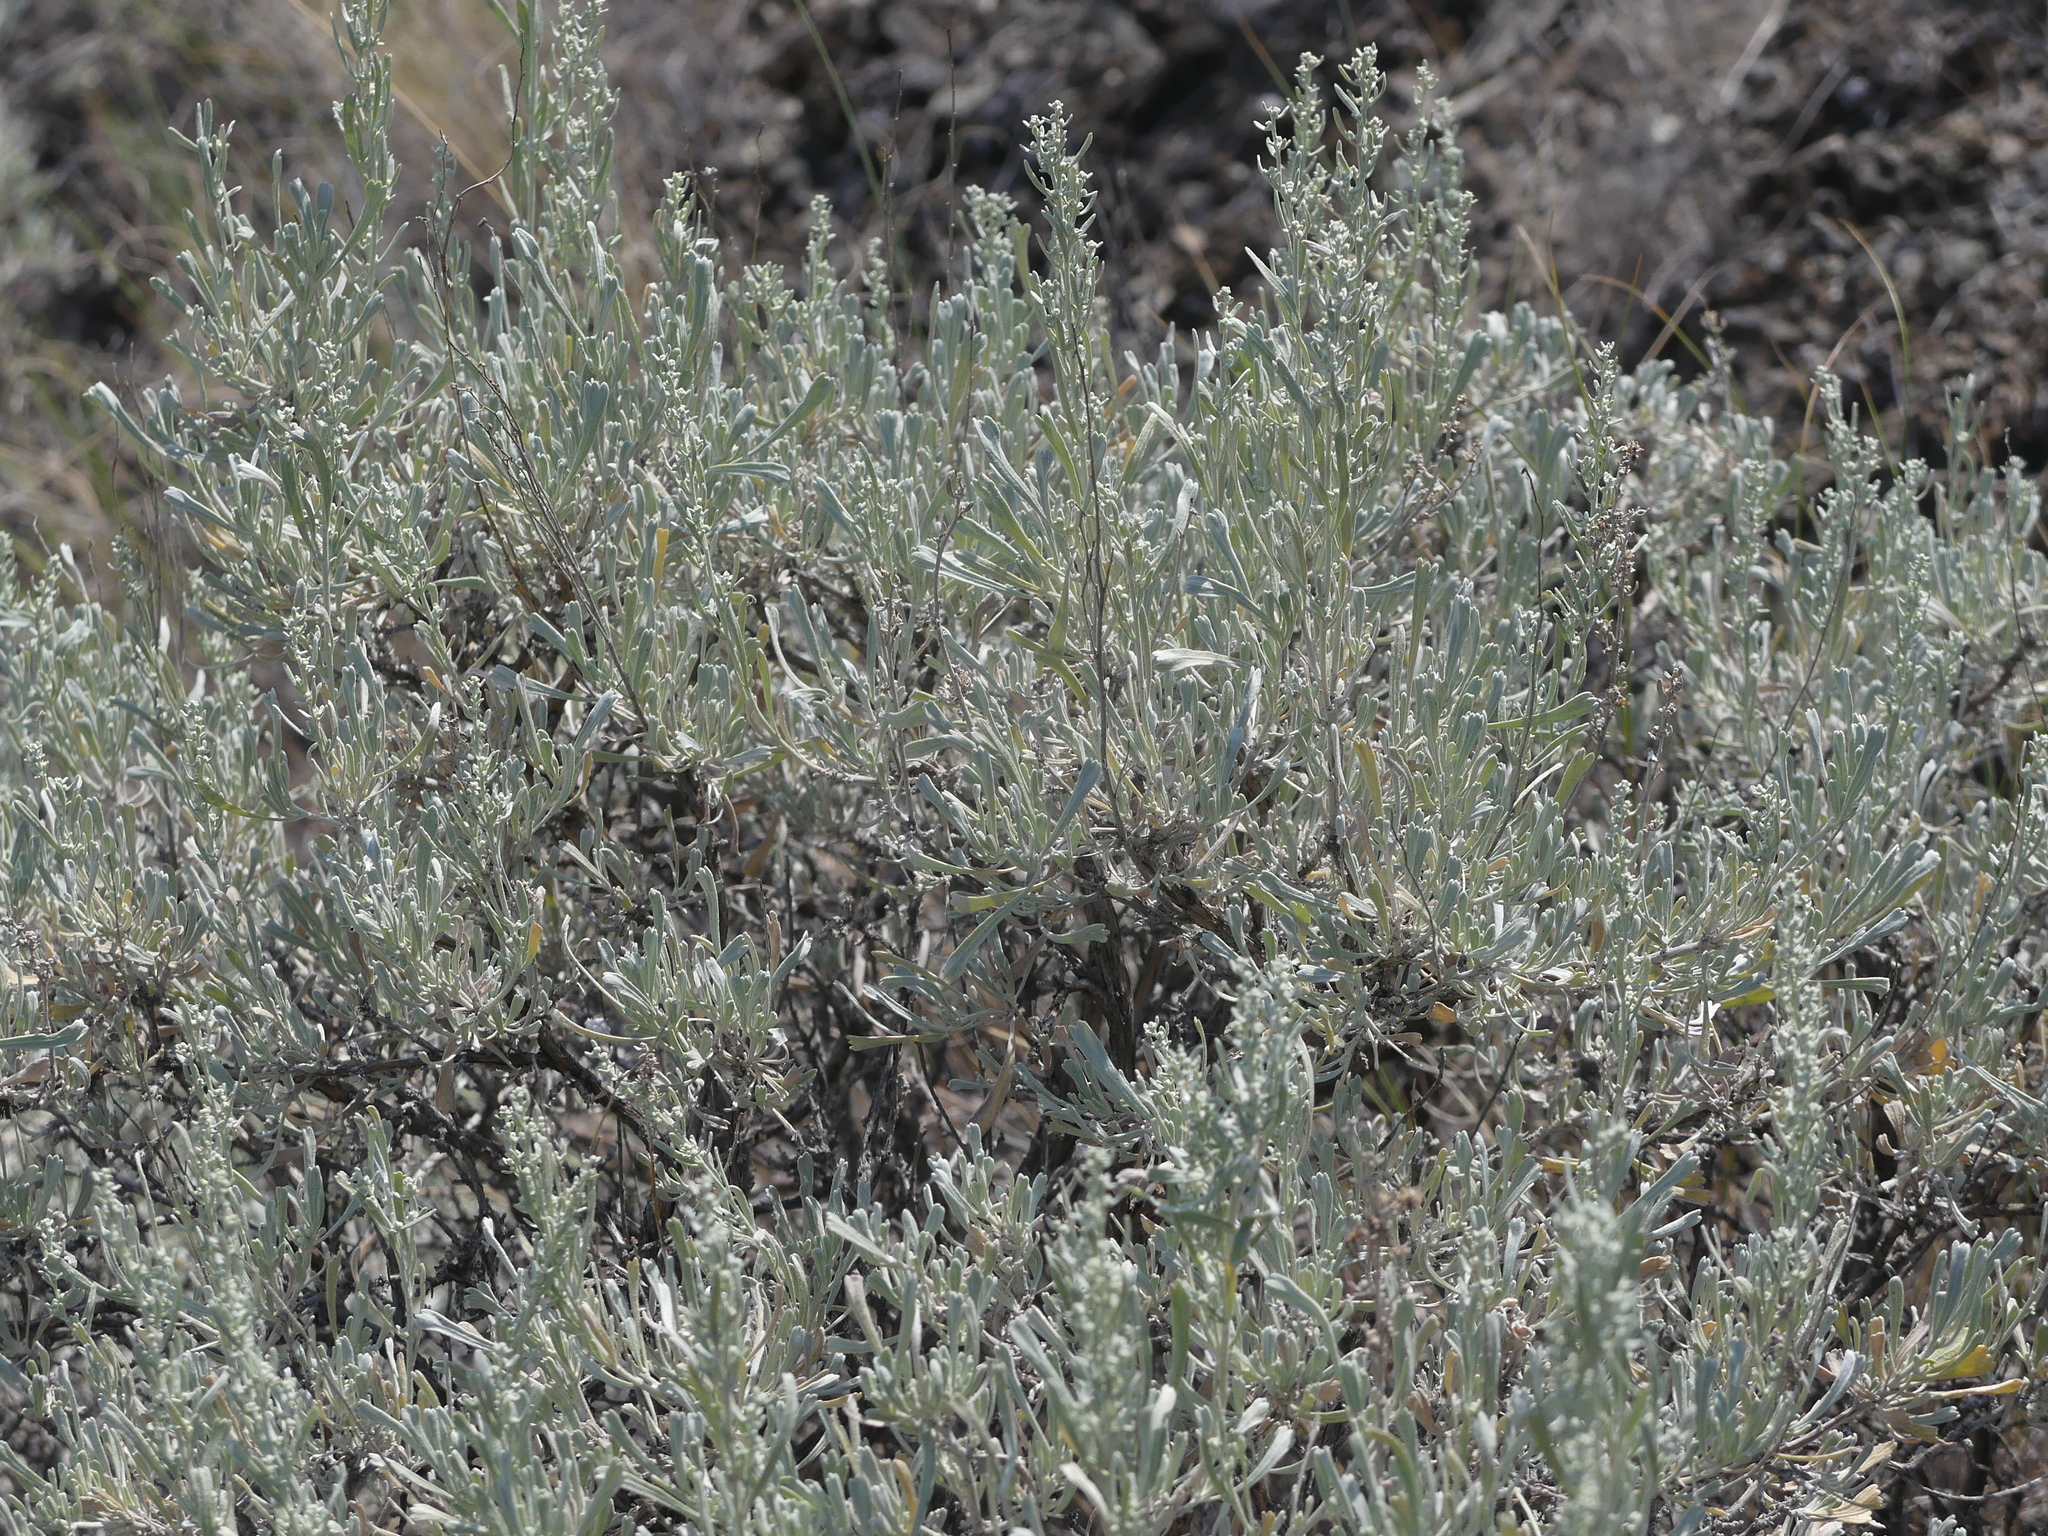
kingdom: Plantae
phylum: Tracheophyta
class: Magnoliopsida
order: Asterales
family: Asteraceae
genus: Artemisia
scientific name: Artemisia tridentata
